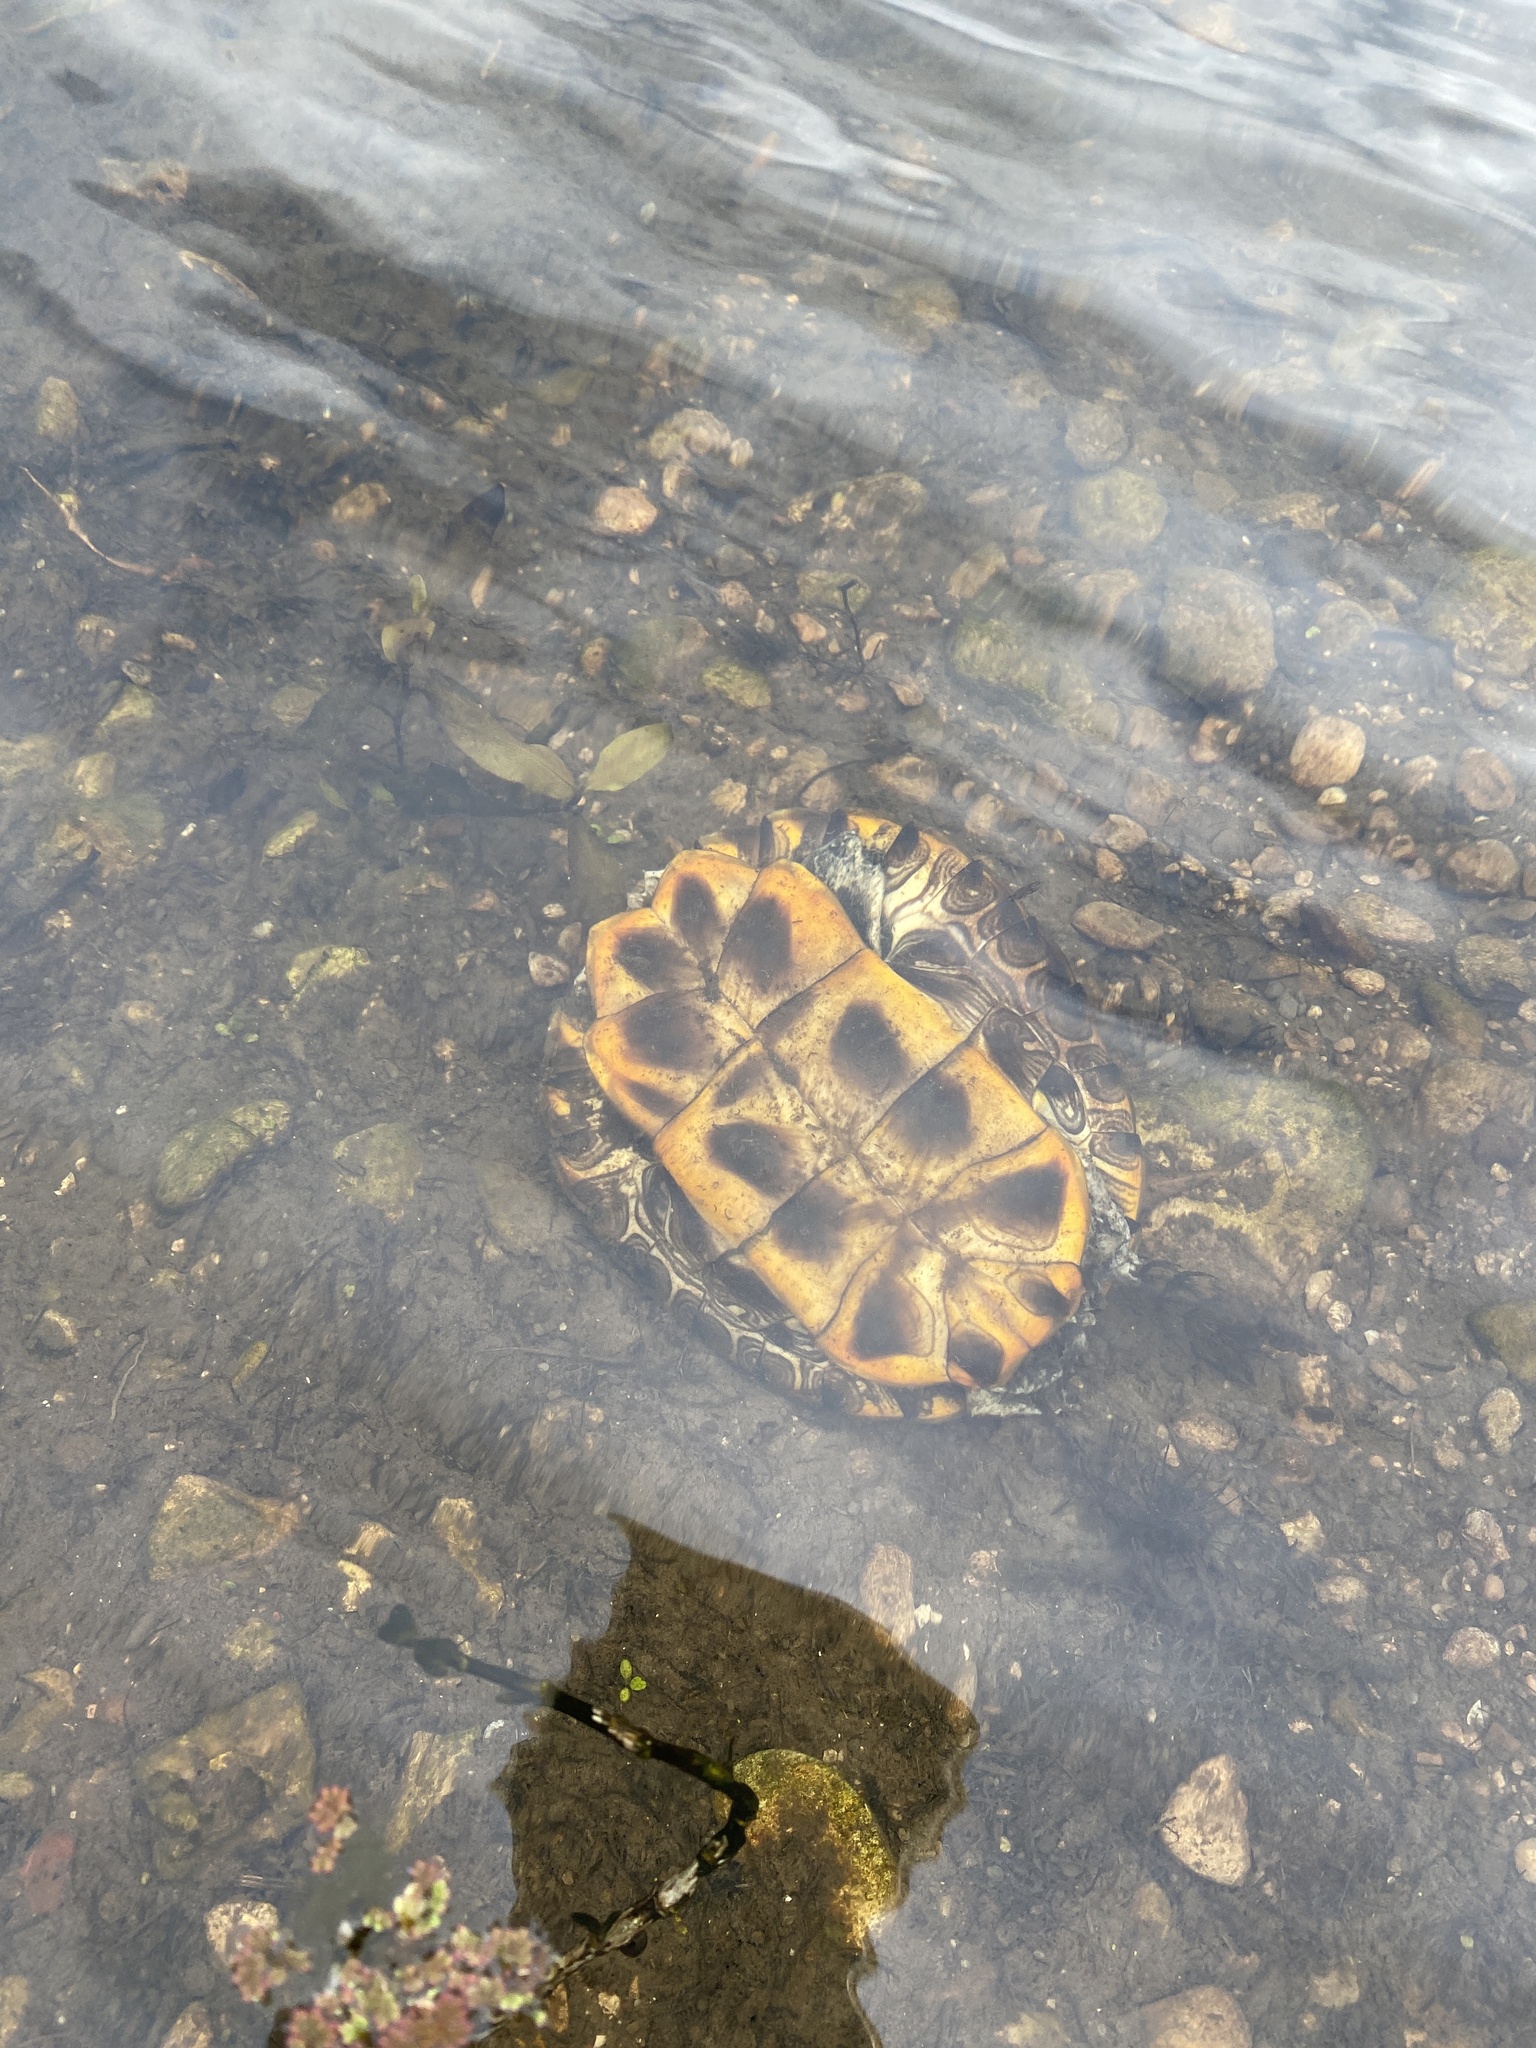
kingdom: Animalia
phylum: Chordata
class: Testudines
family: Emydidae
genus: Trachemys
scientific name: Trachemys scripta
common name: Slider
